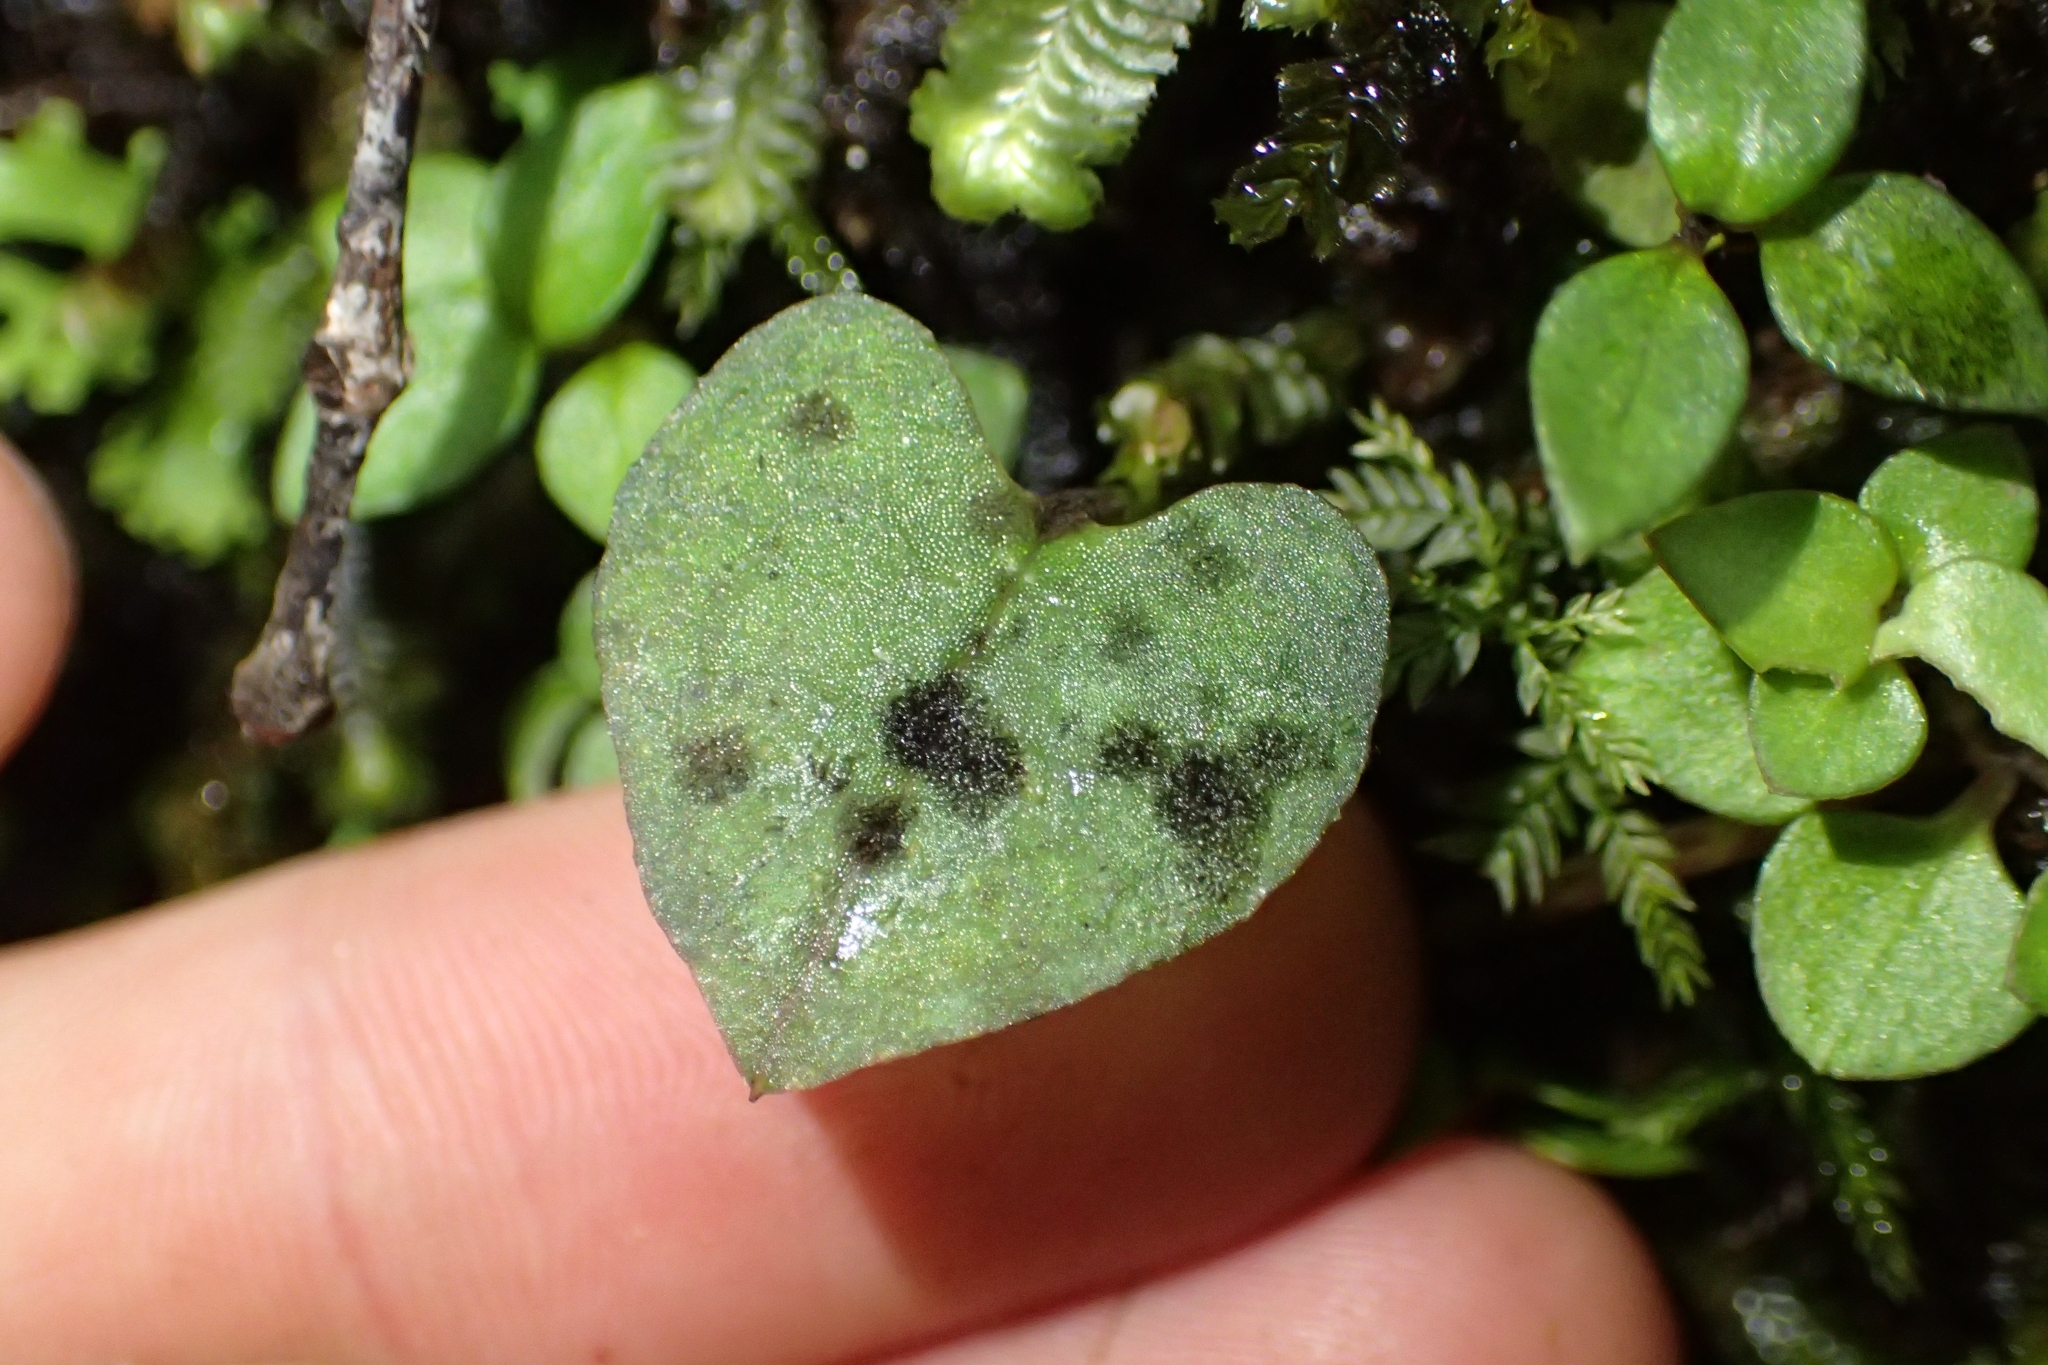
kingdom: Plantae
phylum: Tracheophyta
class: Liliopsida
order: Asparagales
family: Orchidaceae
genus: Acianthus
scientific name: Acianthus sinclairii
